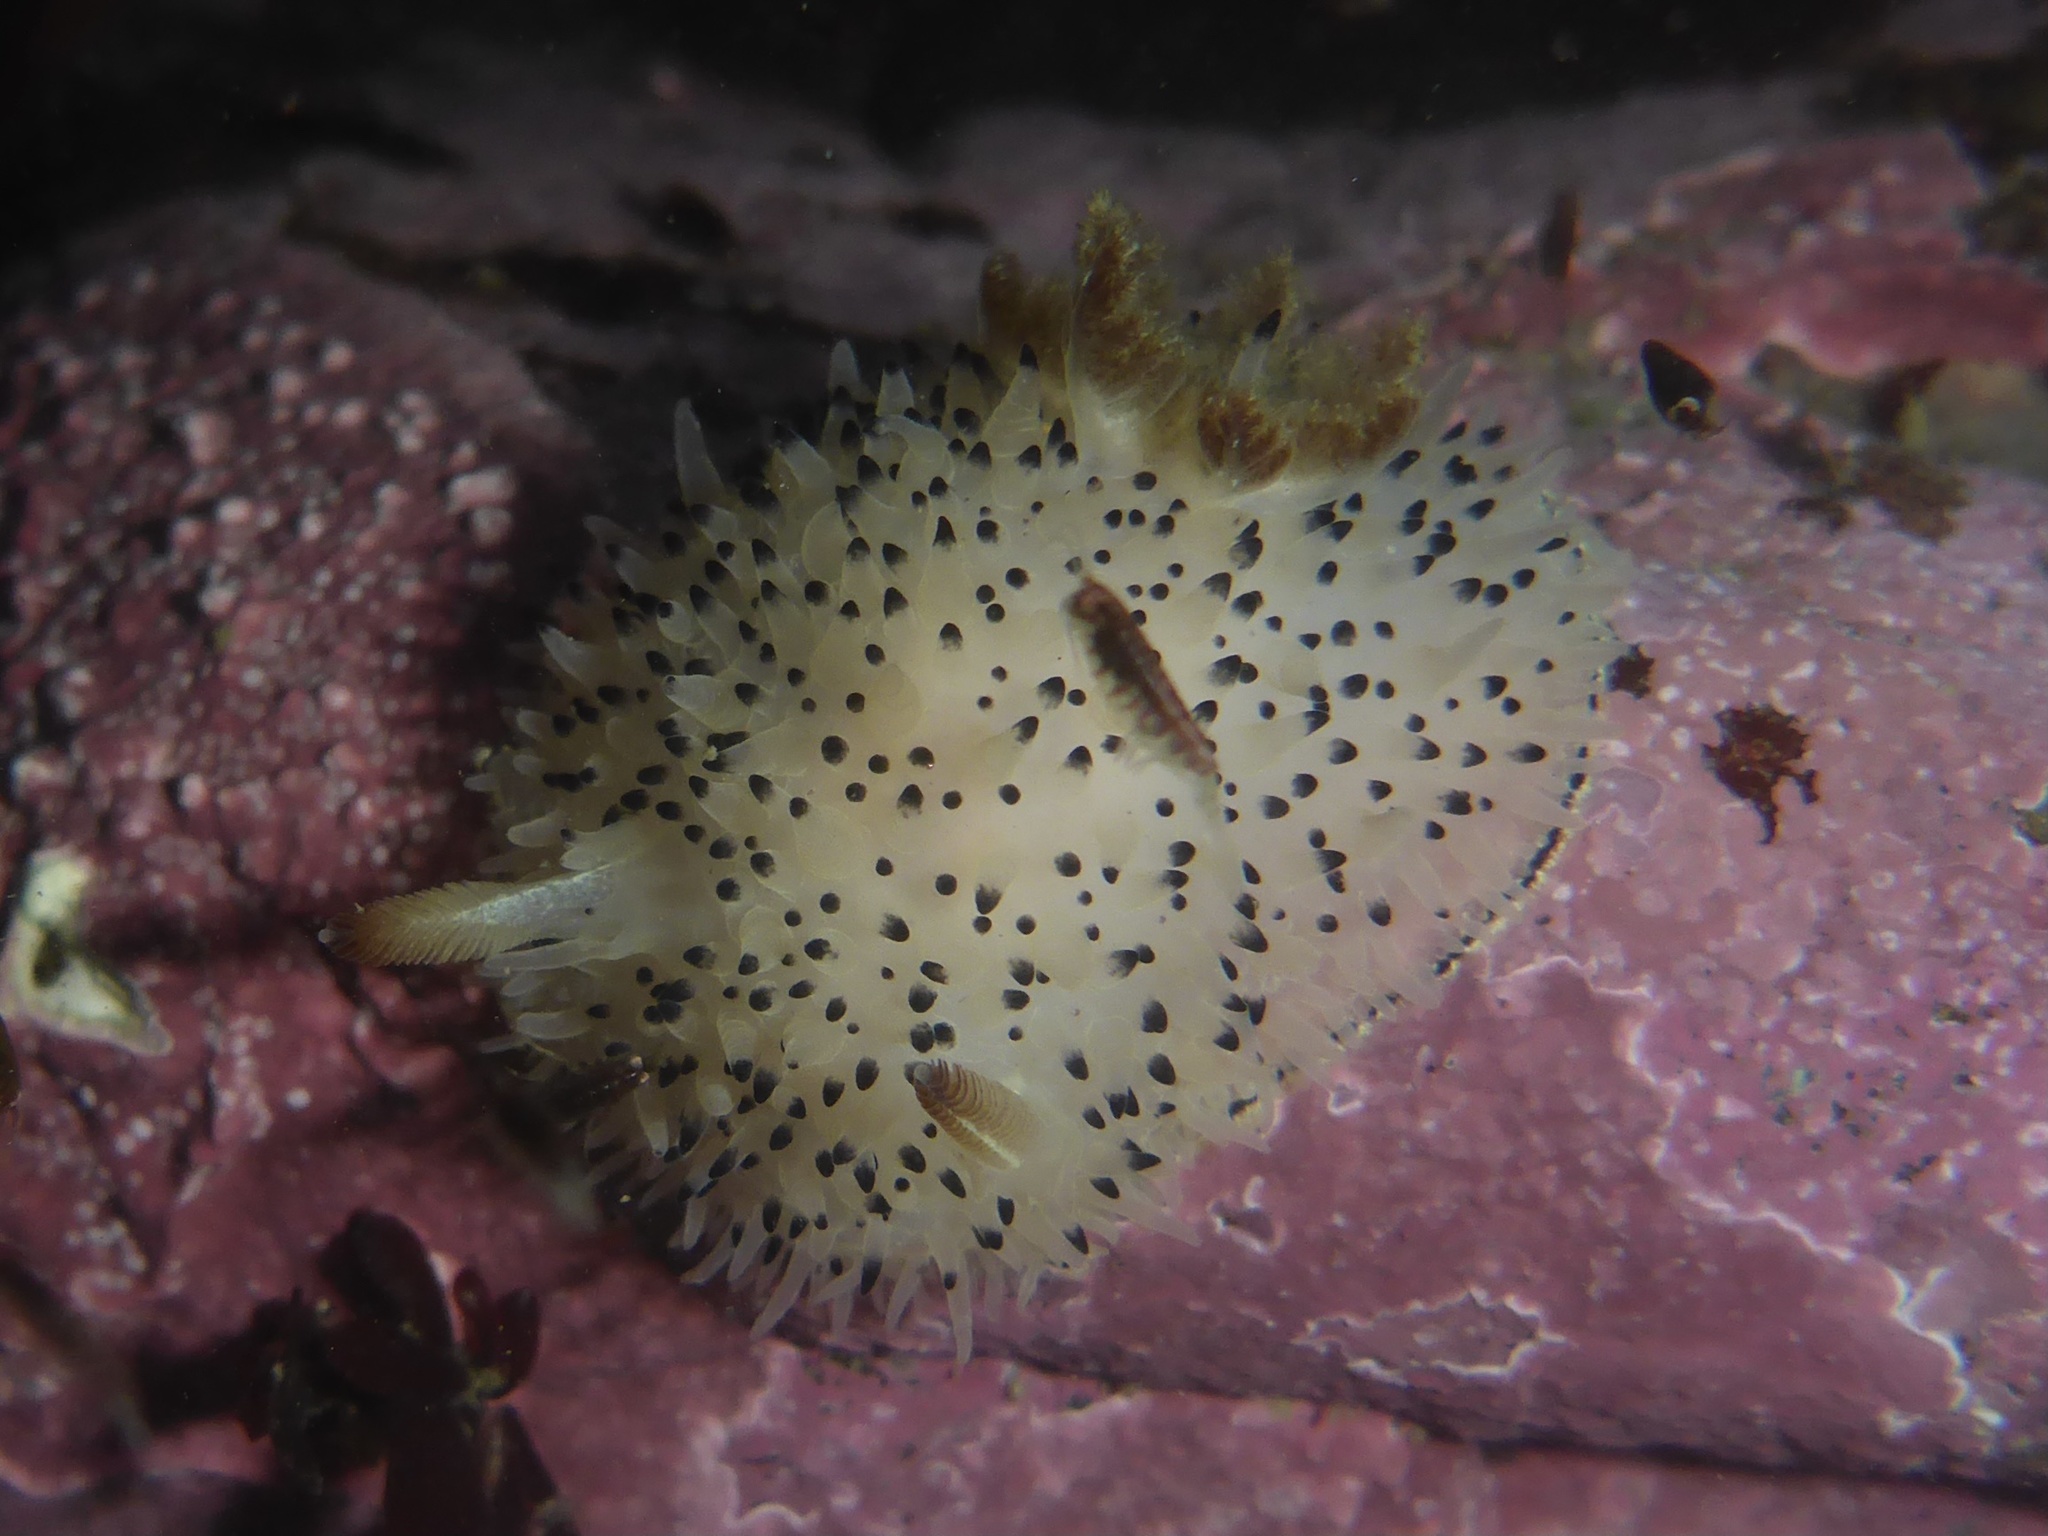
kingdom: Animalia
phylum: Mollusca
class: Gastropoda
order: Nudibranchia
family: Onchidorididae
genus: Acanthodoris
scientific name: Acanthodoris rhodoceras
